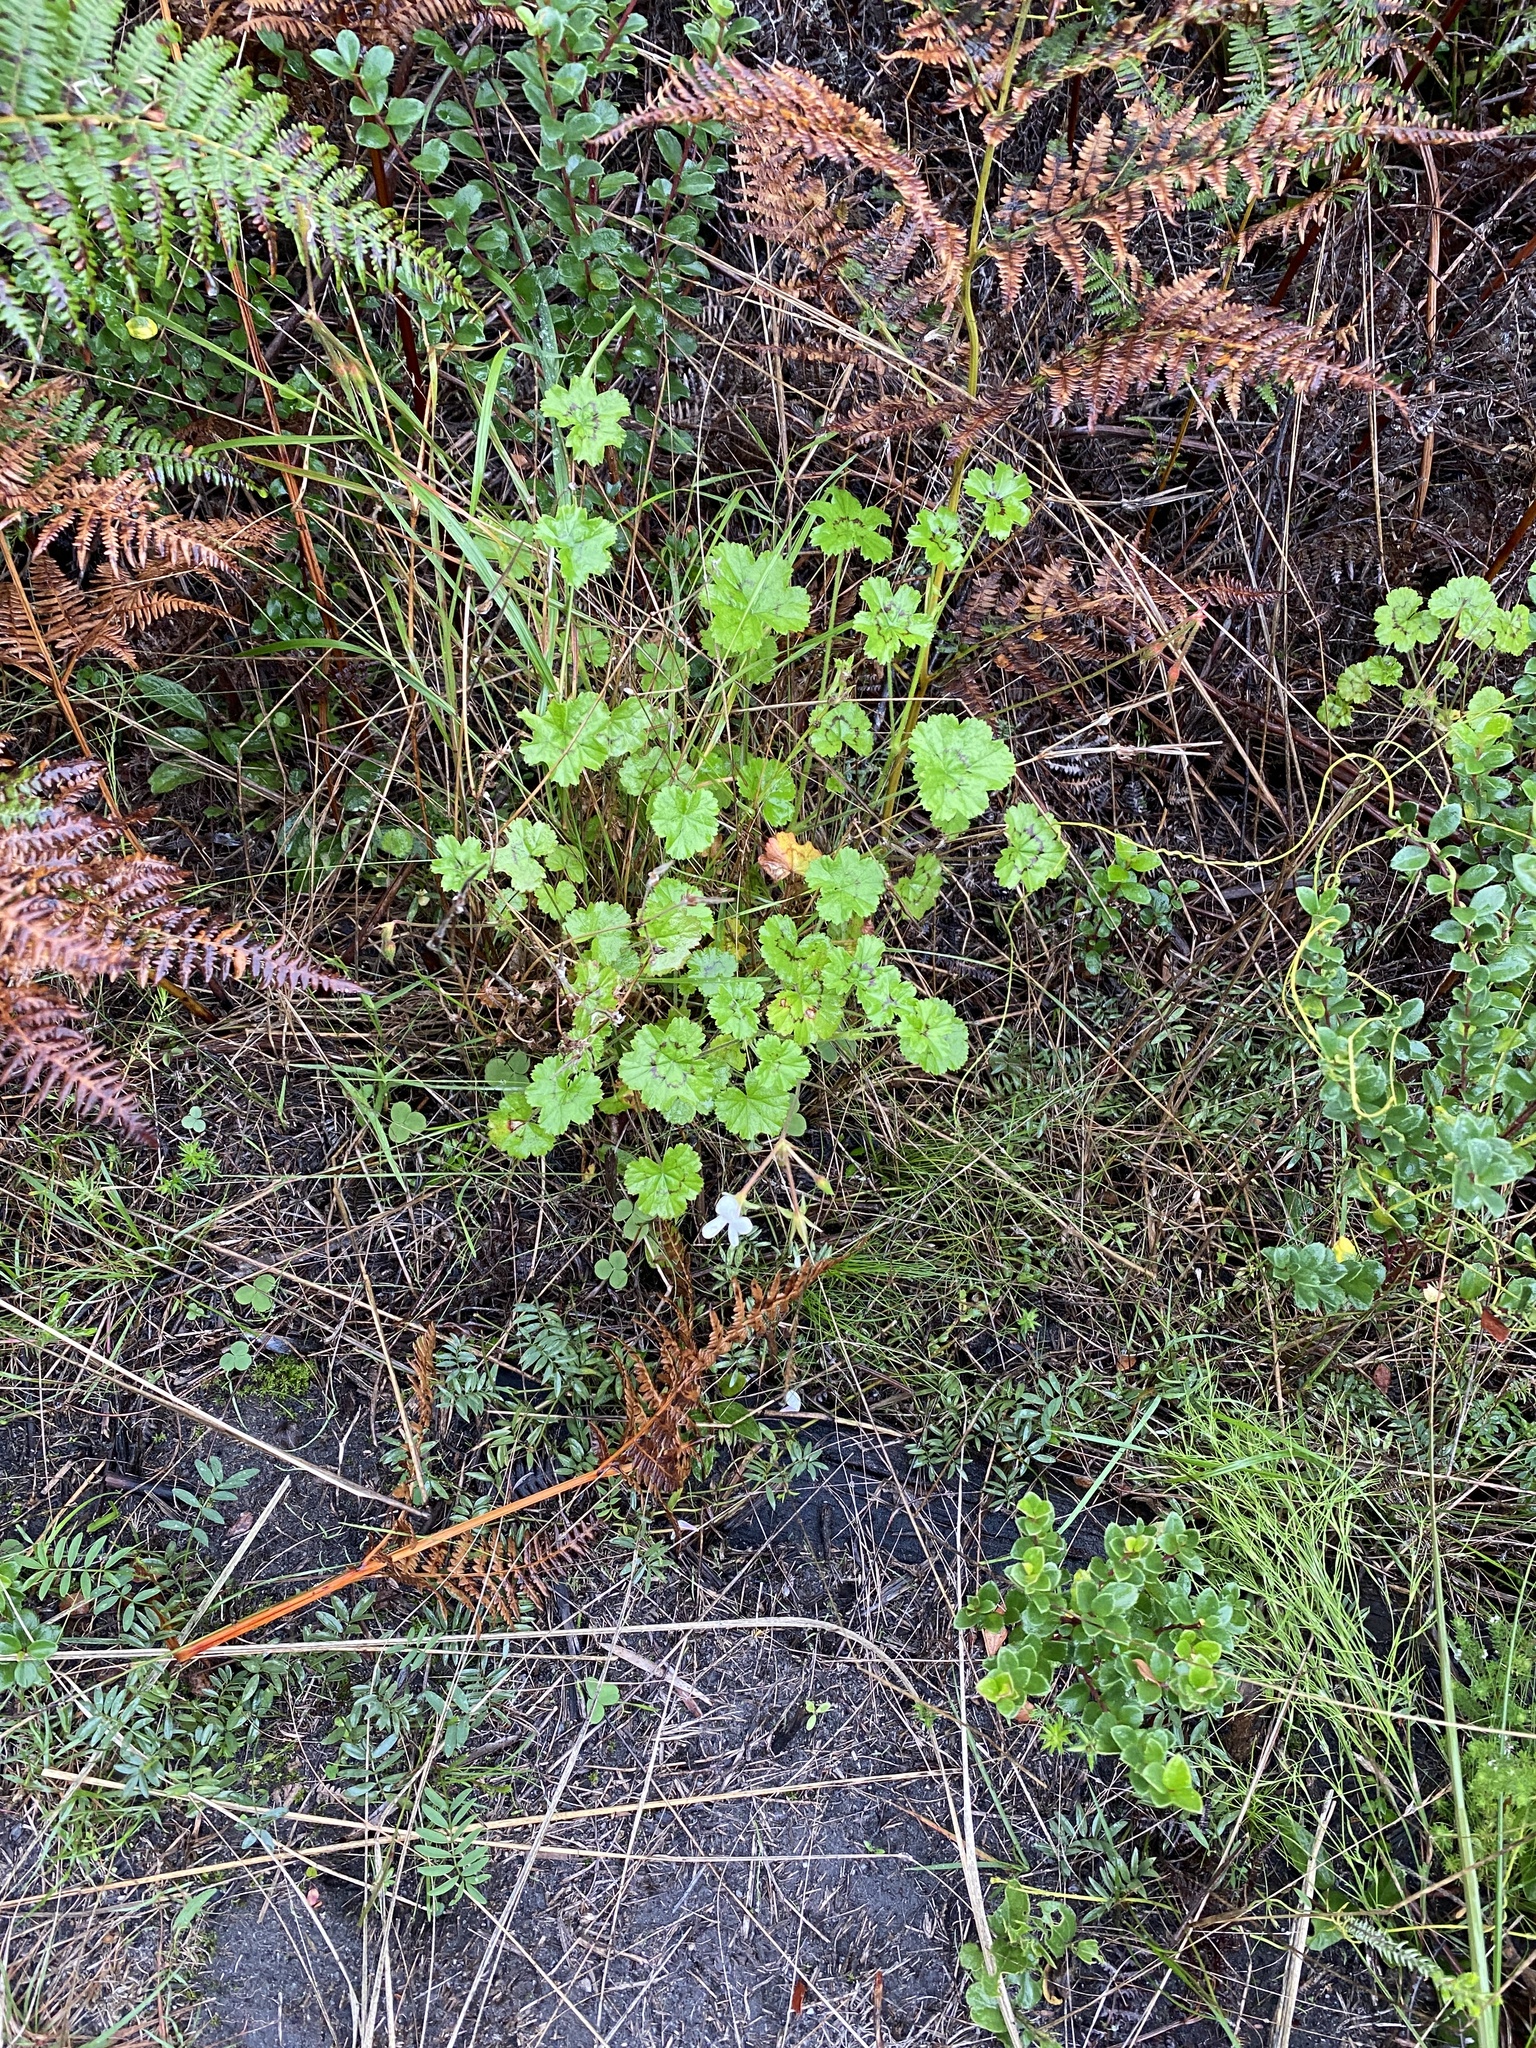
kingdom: Plantae
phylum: Tracheophyta
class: Magnoliopsida
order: Geraniales
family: Geraniaceae
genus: Pelargonium
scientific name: Pelargonium elongatum
